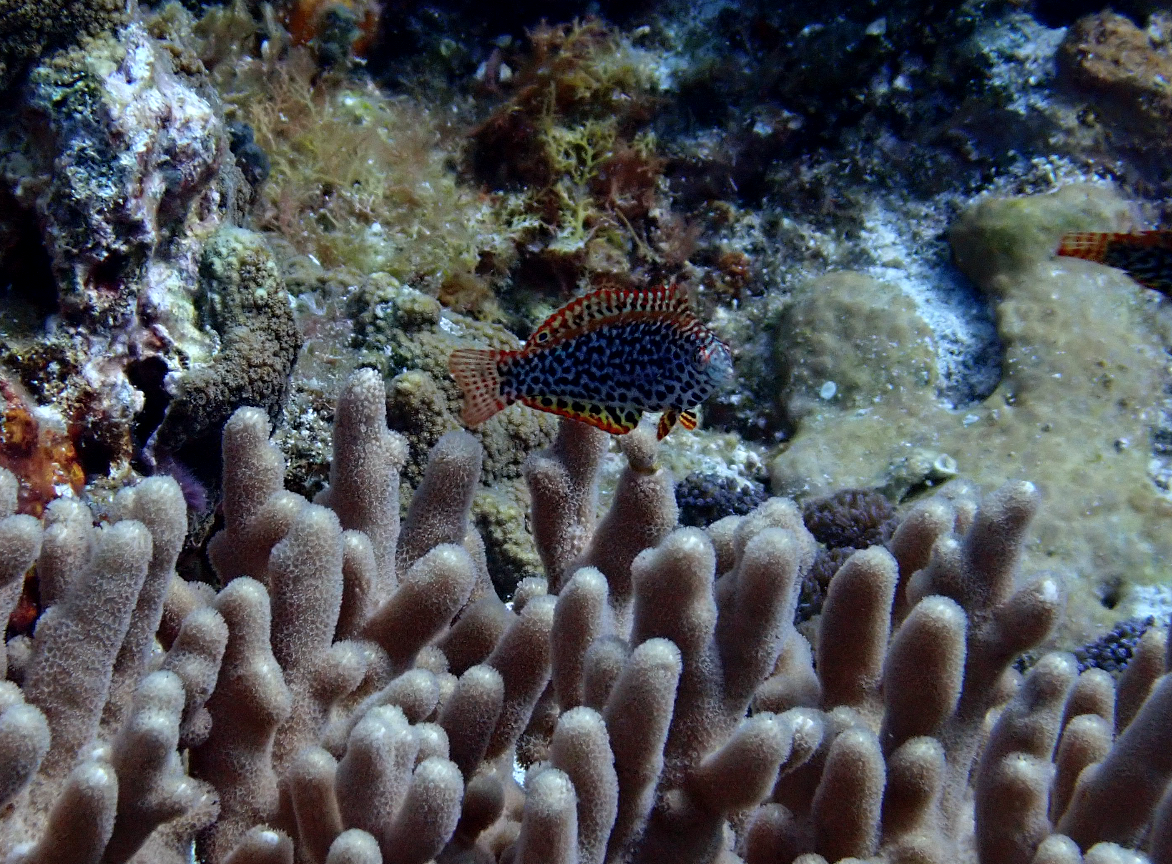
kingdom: Animalia
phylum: Chordata
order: Perciformes
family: Labridae
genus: Macropharyngodon
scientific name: Macropharyngodon meleagris
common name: Leopard wrasse
